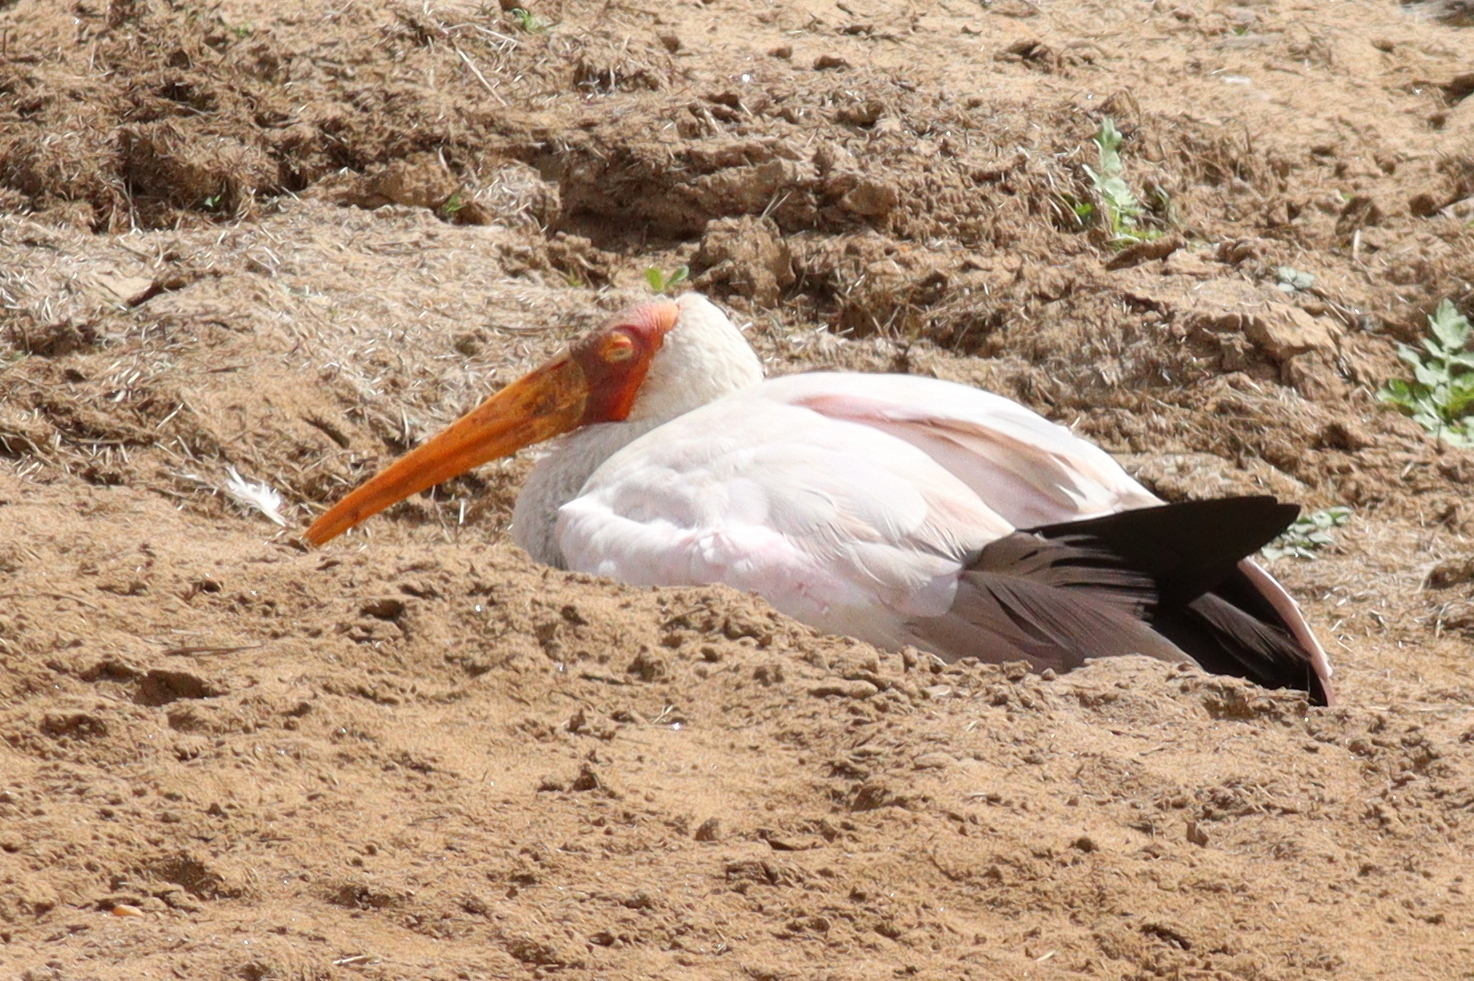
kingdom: Animalia
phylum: Chordata
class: Aves
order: Ciconiiformes
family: Ciconiidae
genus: Mycteria
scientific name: Mycteria ibis
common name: Yellow-billed stork
